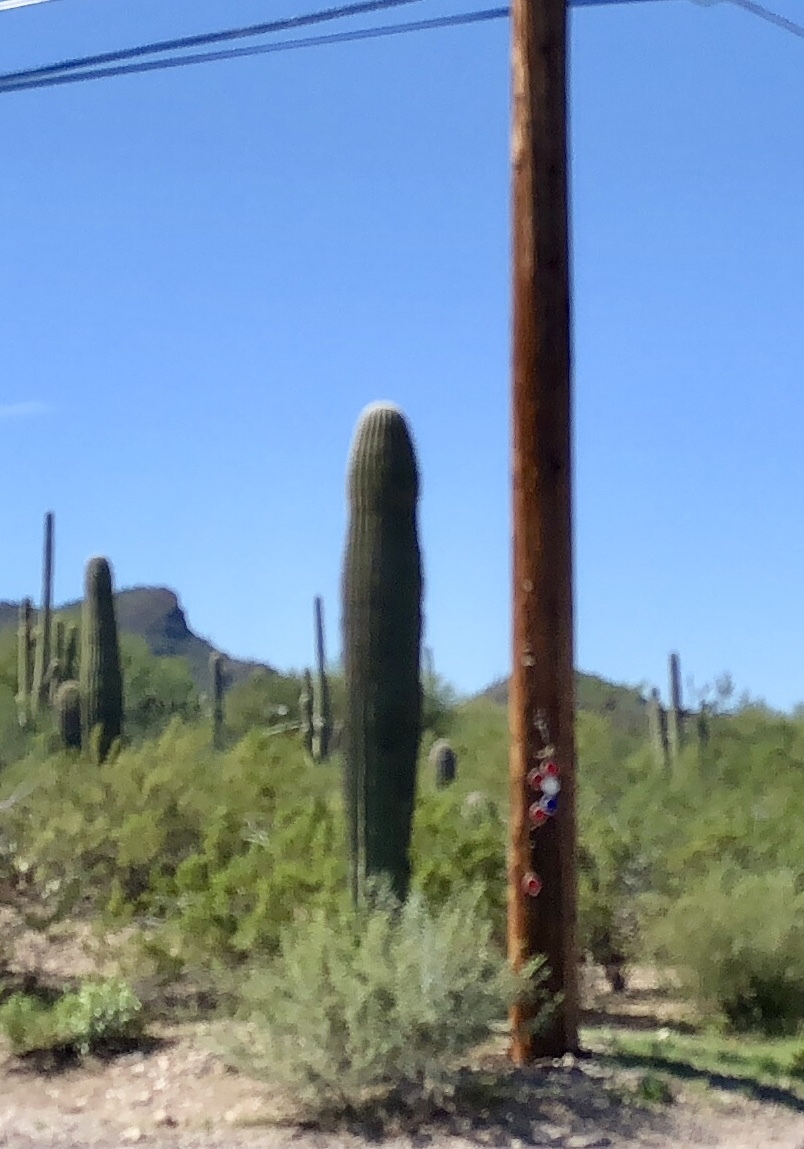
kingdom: Plantae
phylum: Tracheophyta
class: Magnoliopsida
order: Caryophyllales
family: Cactaceae
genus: Carnegiea
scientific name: Carnegiea gigantea
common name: Saguaro
